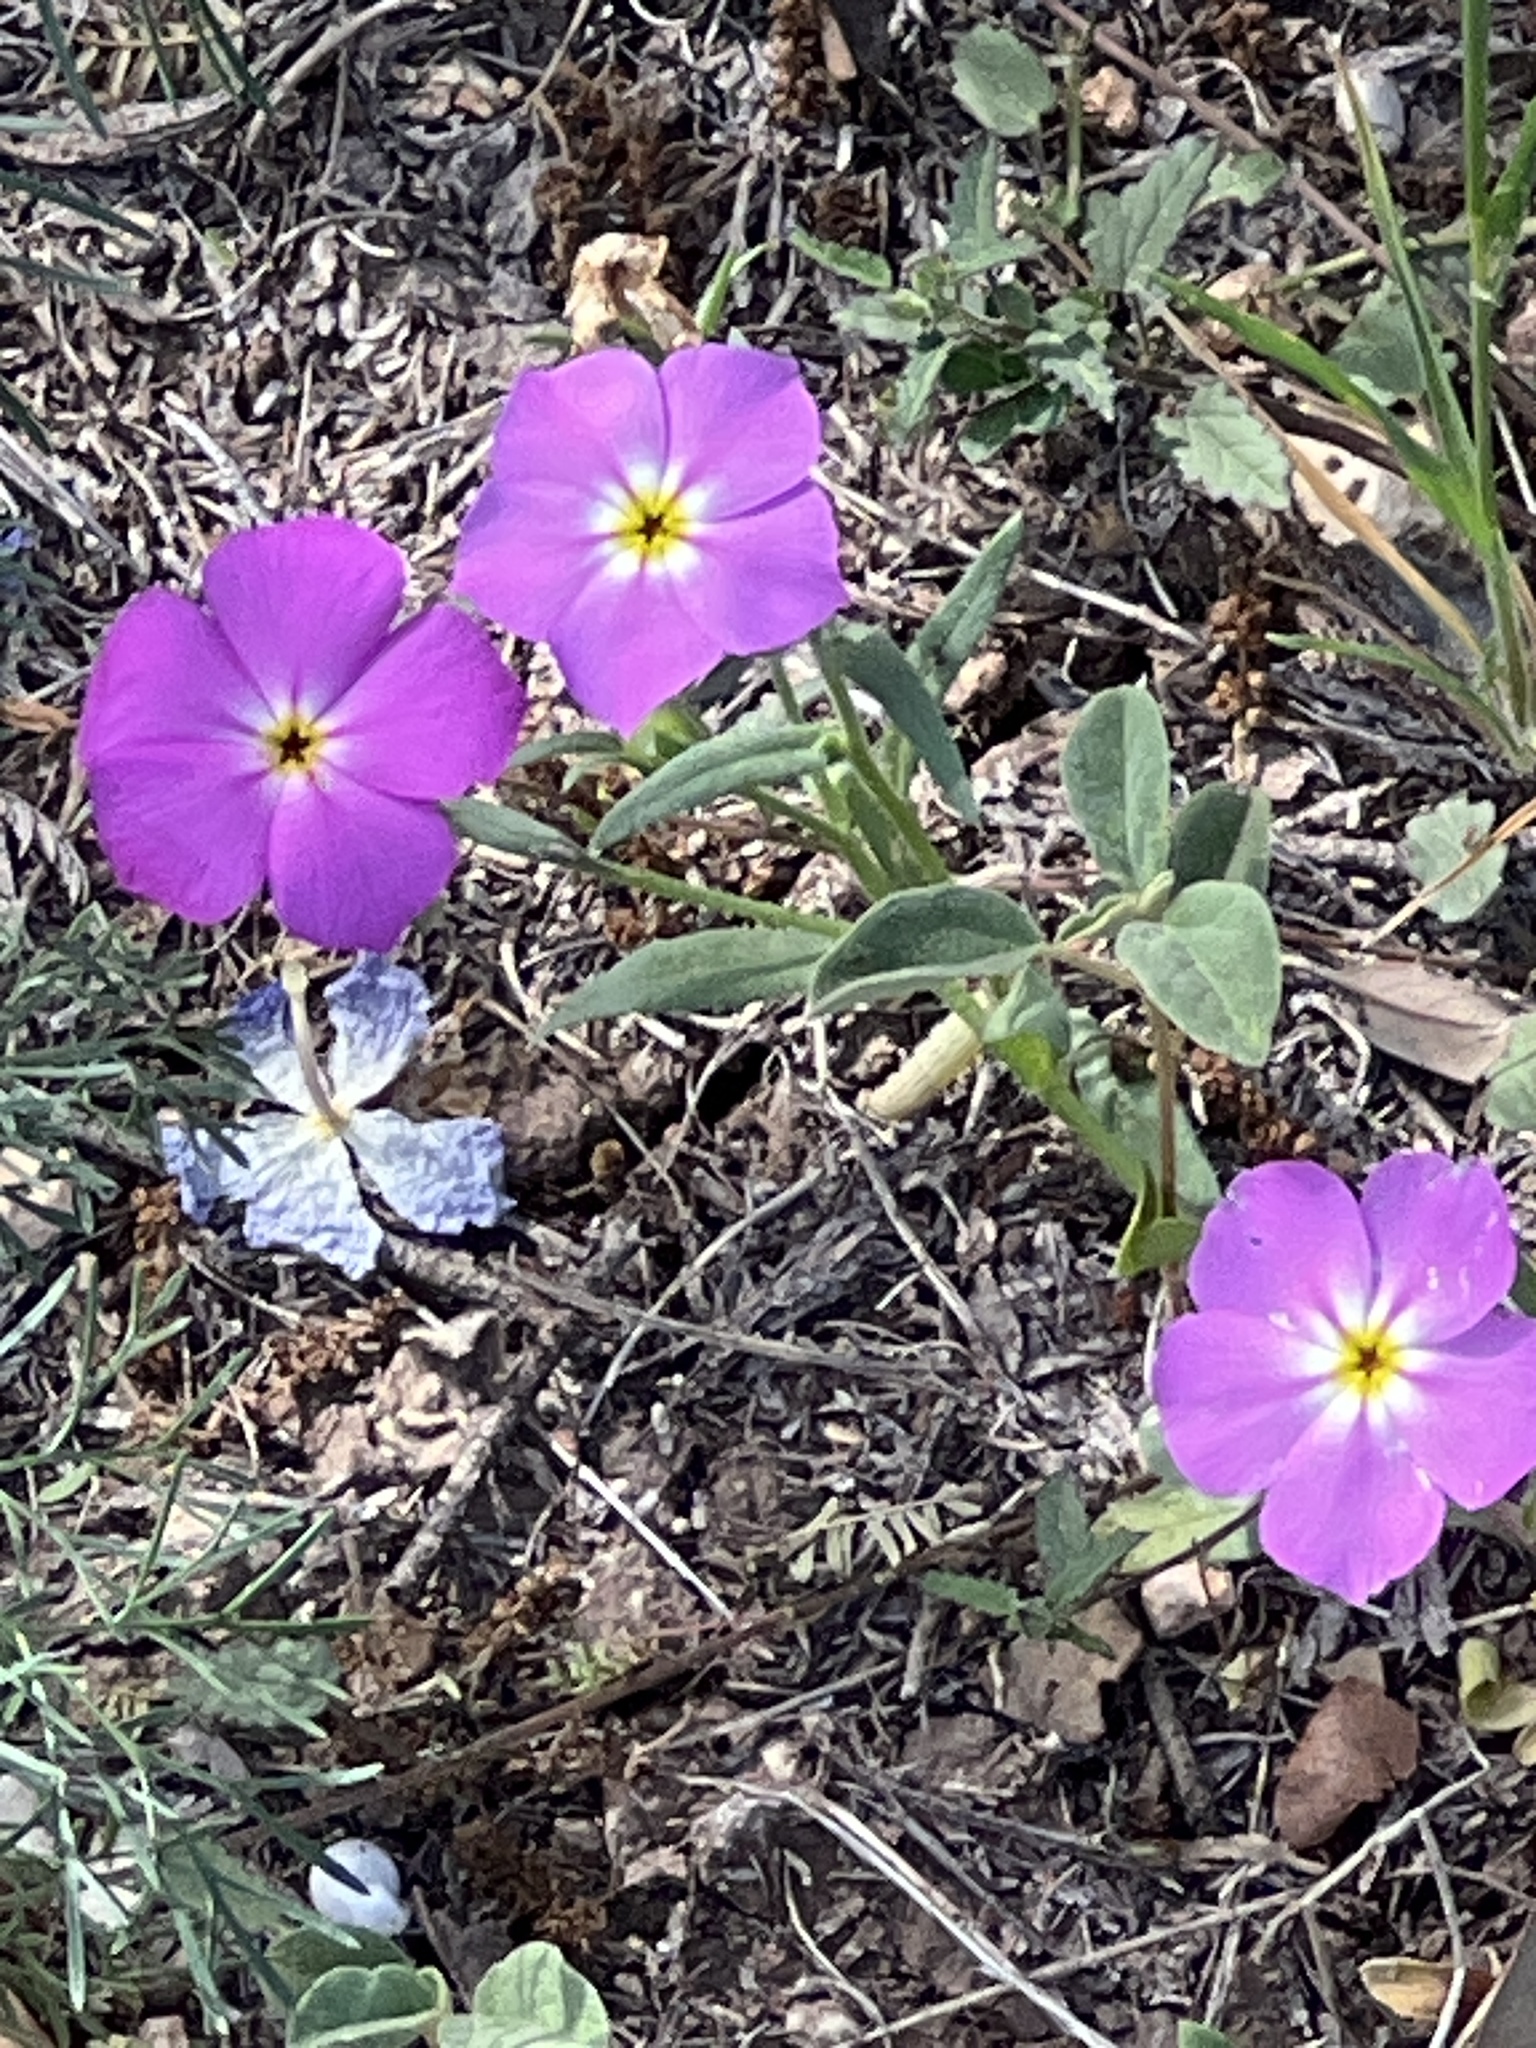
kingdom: Plantae
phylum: Tracheophyta
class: Magnoliopsida
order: Ericales
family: Polemoniaceae
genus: Phlox
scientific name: Phlox roemeriana
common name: Roemer's phlox
